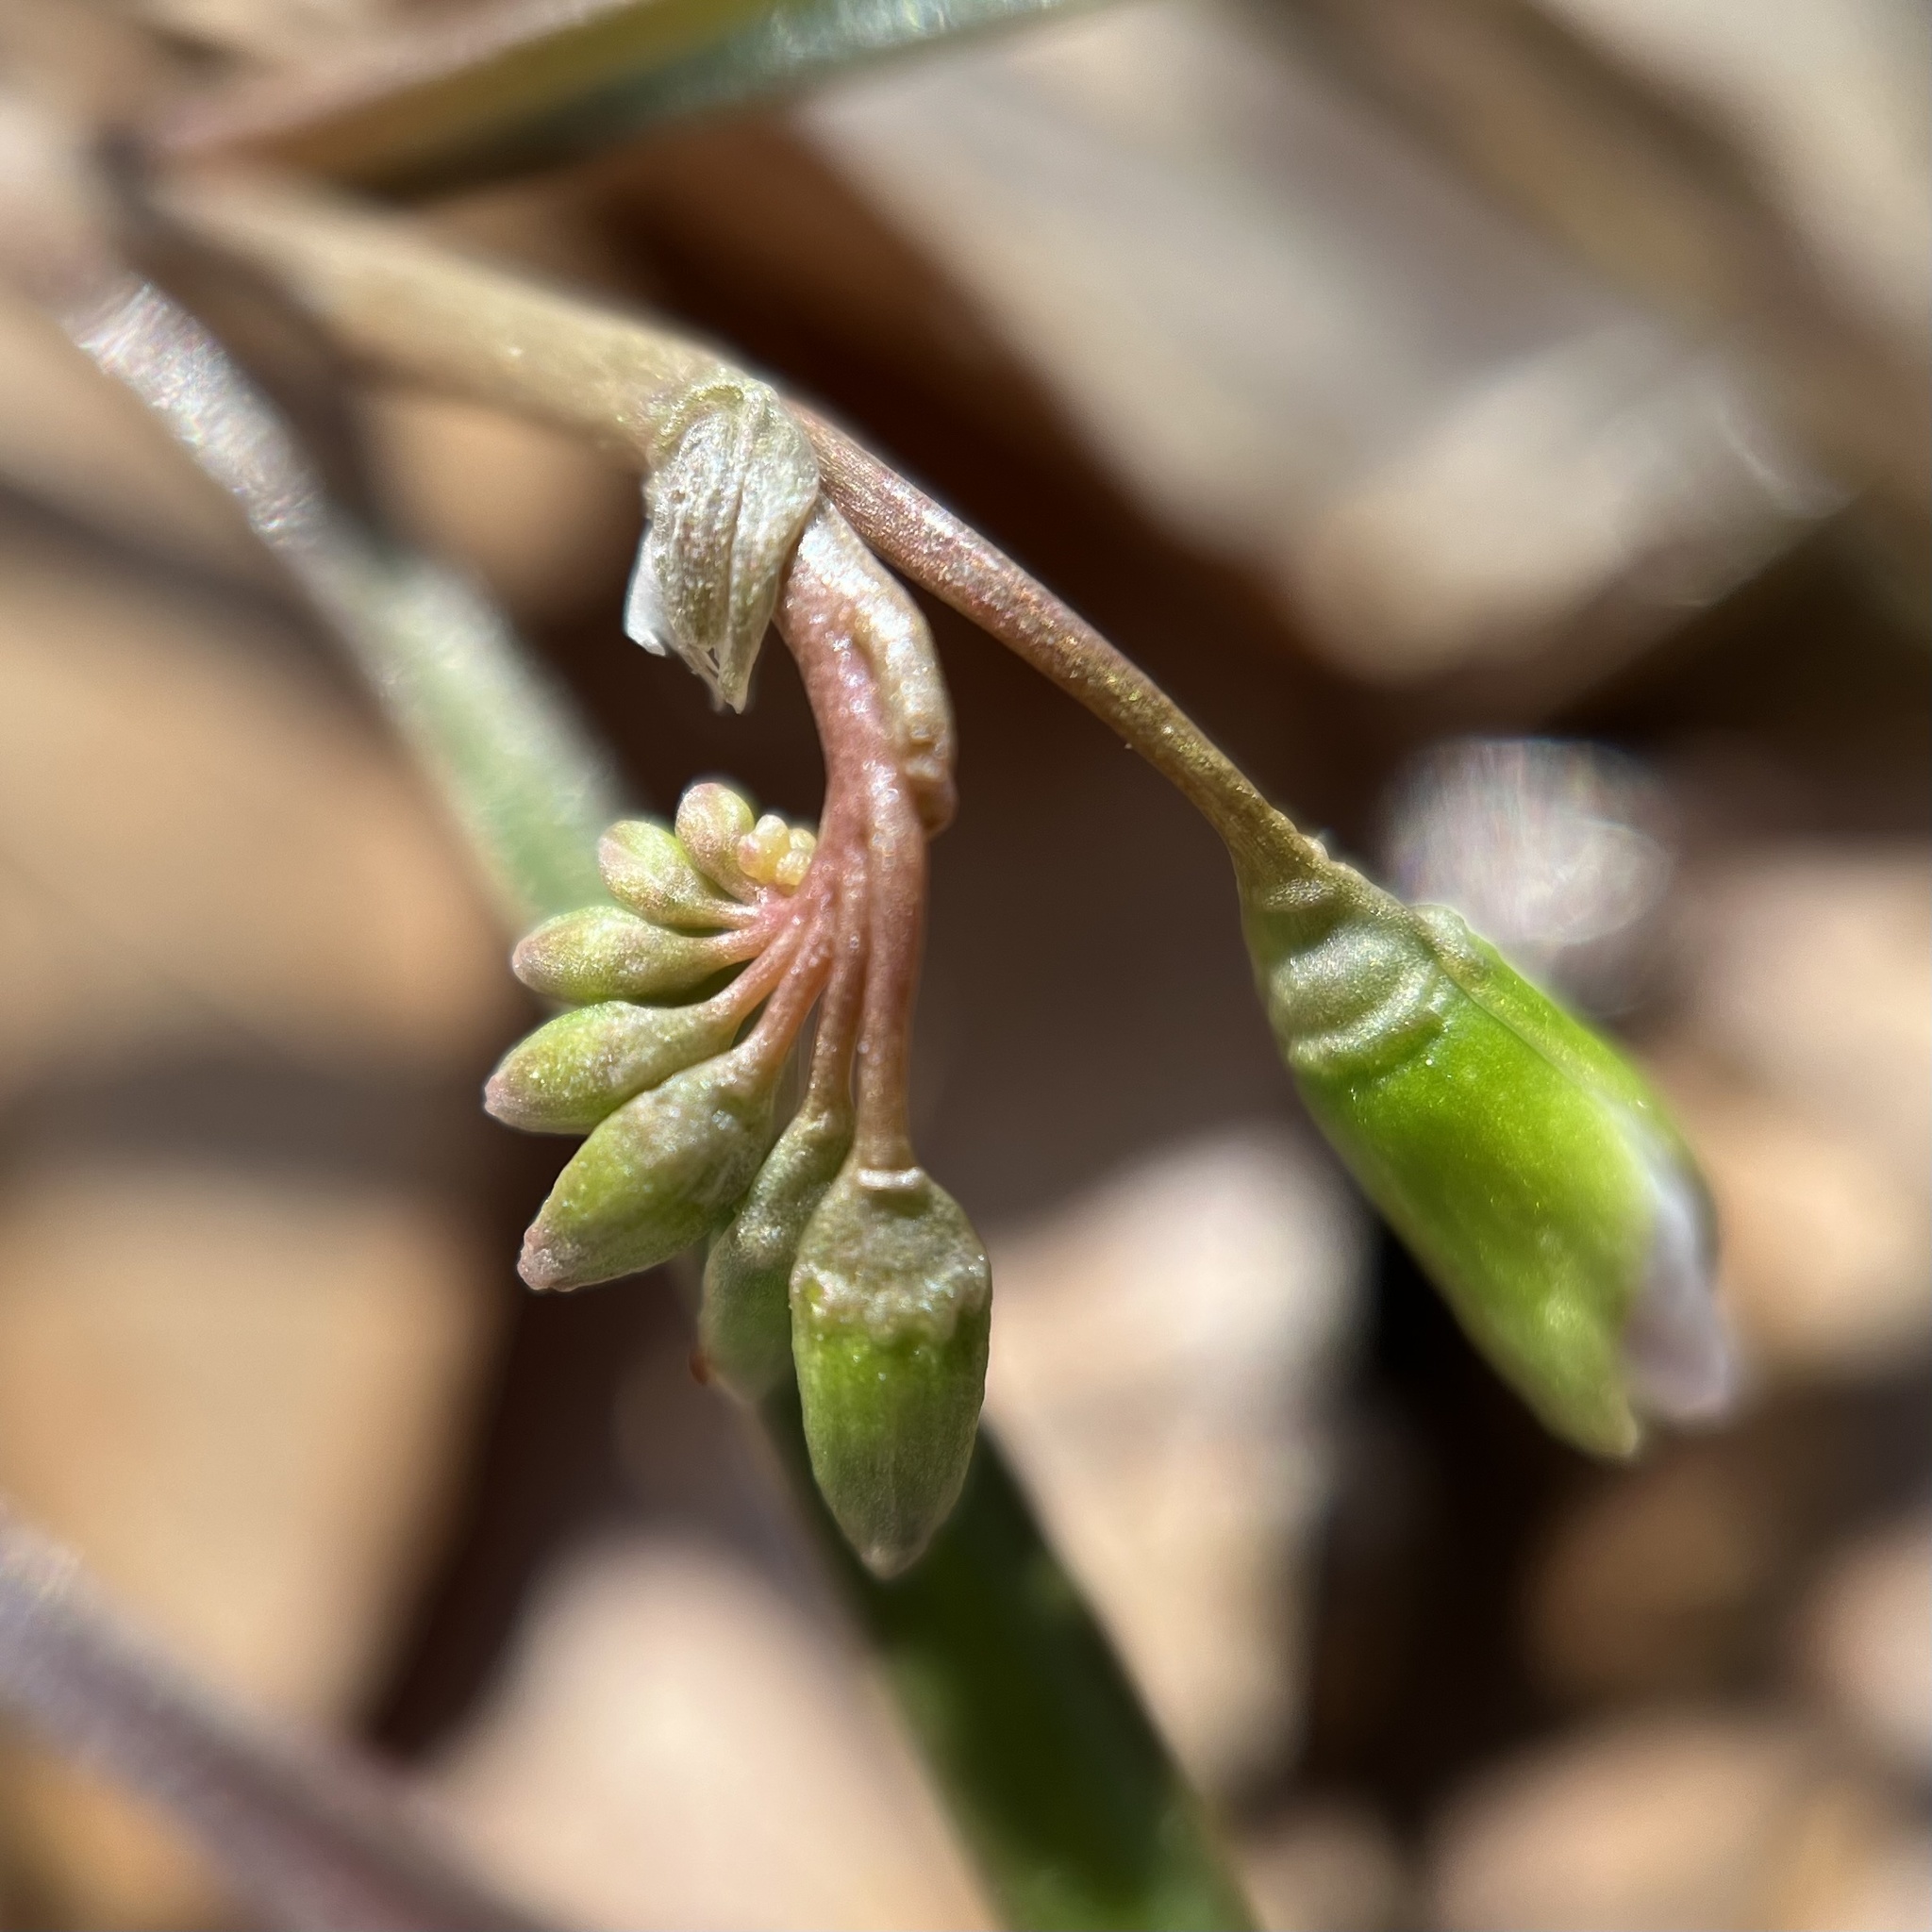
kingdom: Plantae
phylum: Tracheophyta
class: Magnoliopsida
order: Caryophyllales
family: Montiaceae
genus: Claytonia
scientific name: Claytonia virginica
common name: Virginia springbeauty
